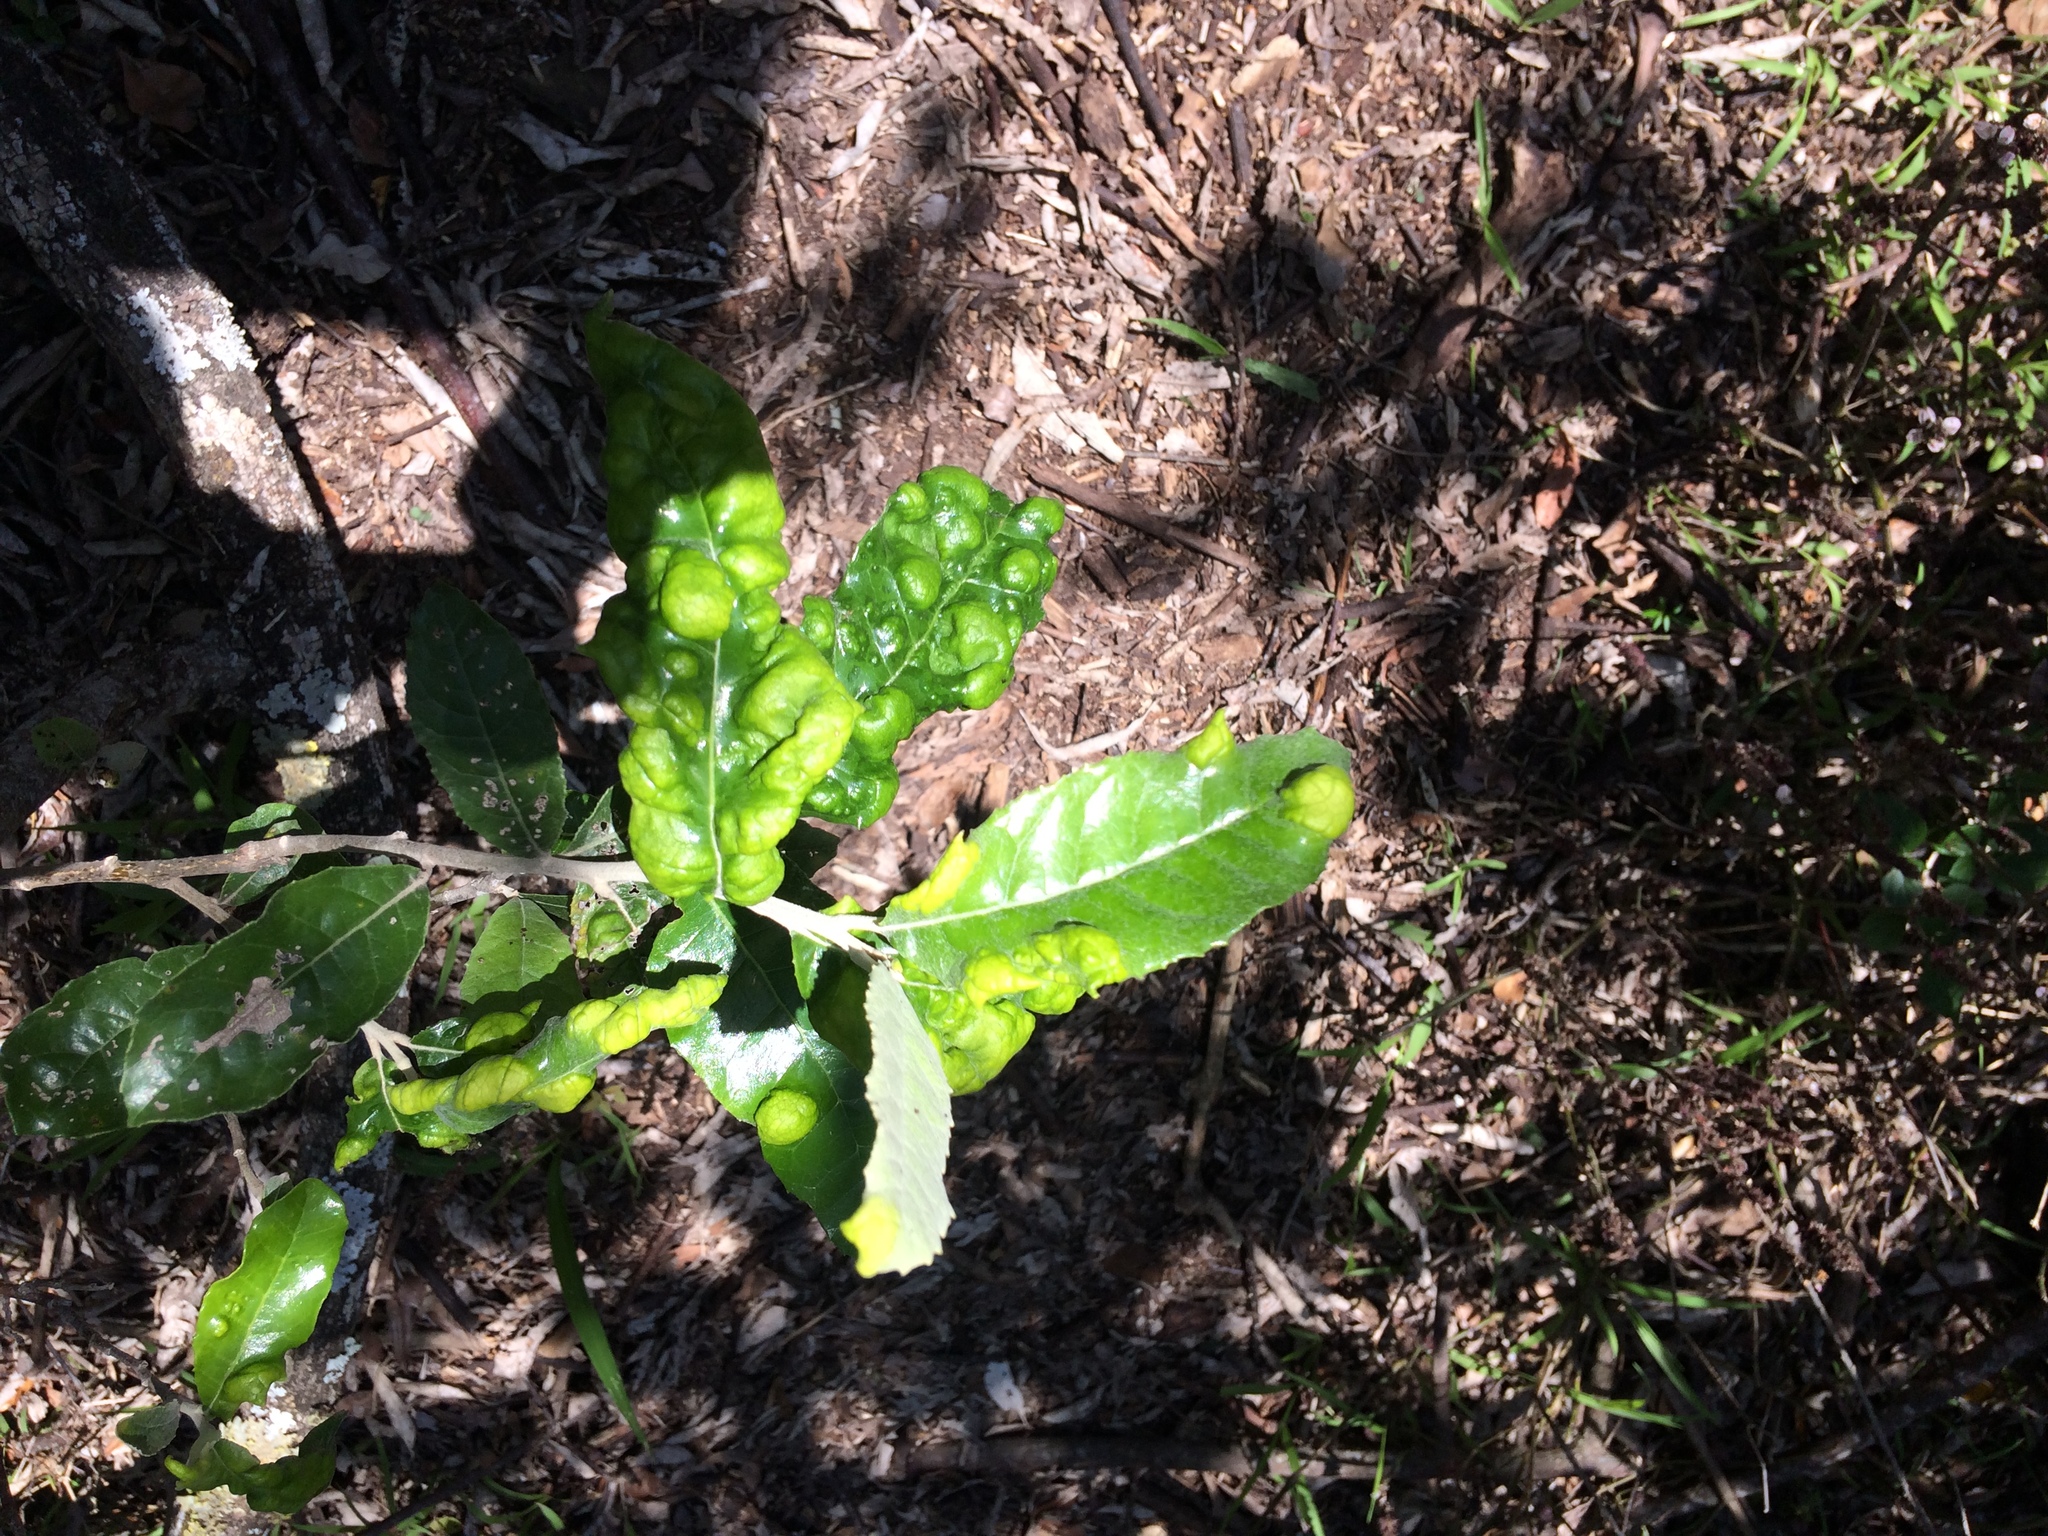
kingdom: Plantae
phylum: Tracheophyta
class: Magnoliopsida
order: Asterales
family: Asteraceae
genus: Brachylaena
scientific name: Brachylaena discolor
